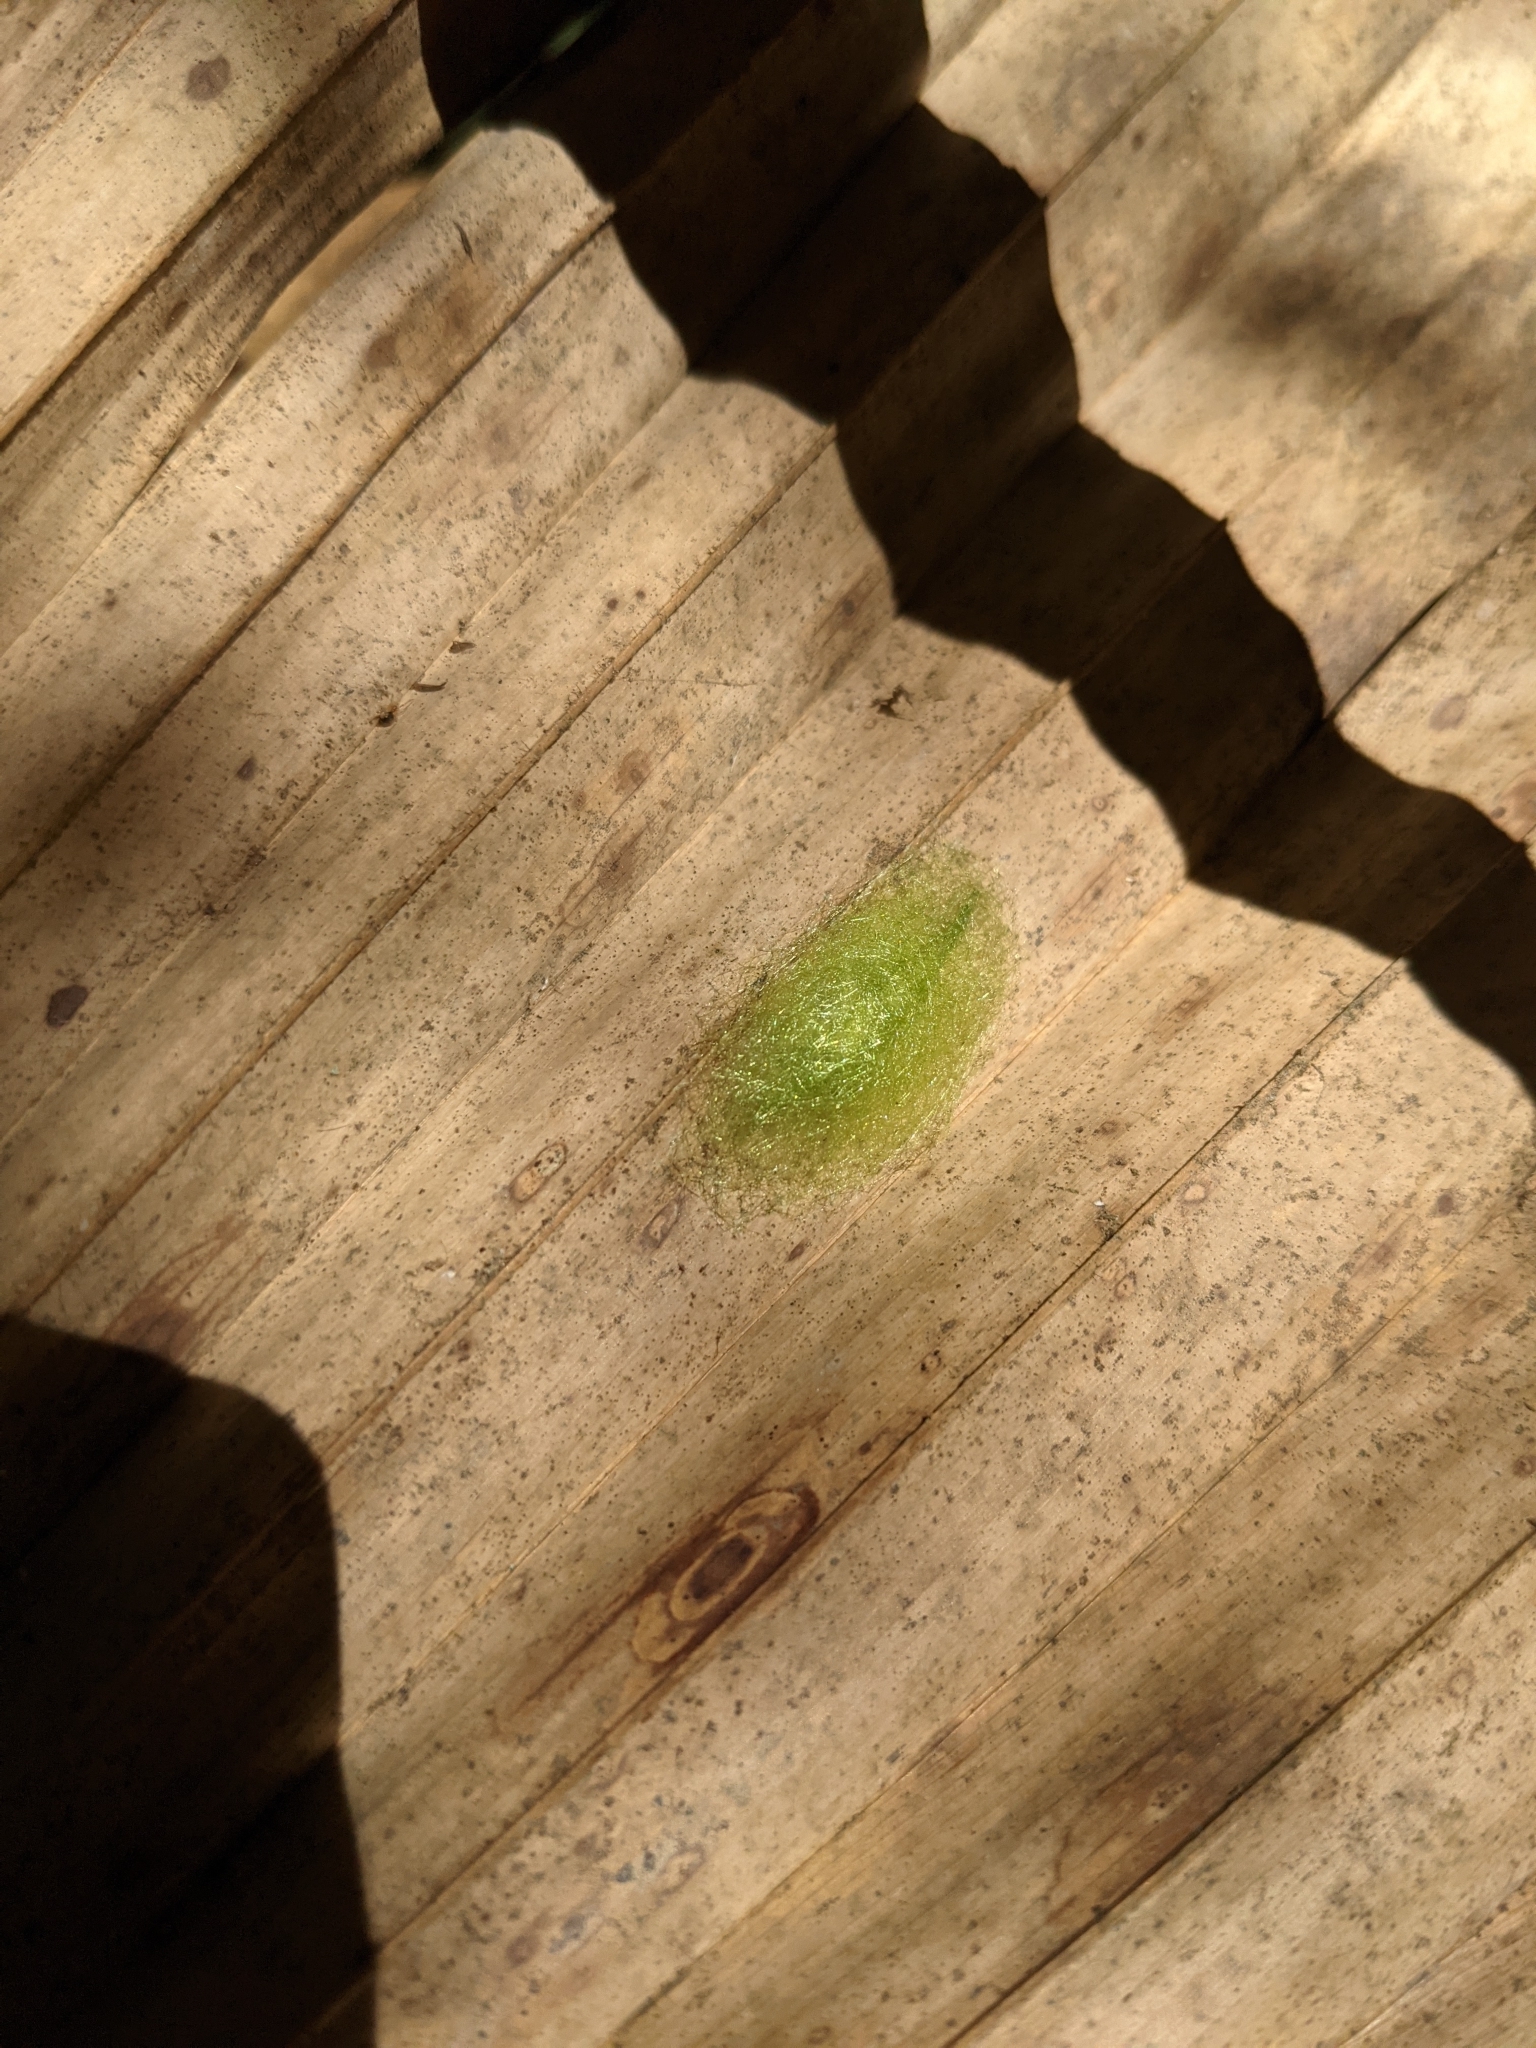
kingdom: Animalia
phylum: Arthropoda
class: Arachnida
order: Araneae
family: Araneidae
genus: Gasteracantha
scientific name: Gasteracantha cancriformis
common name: Orb weavers
